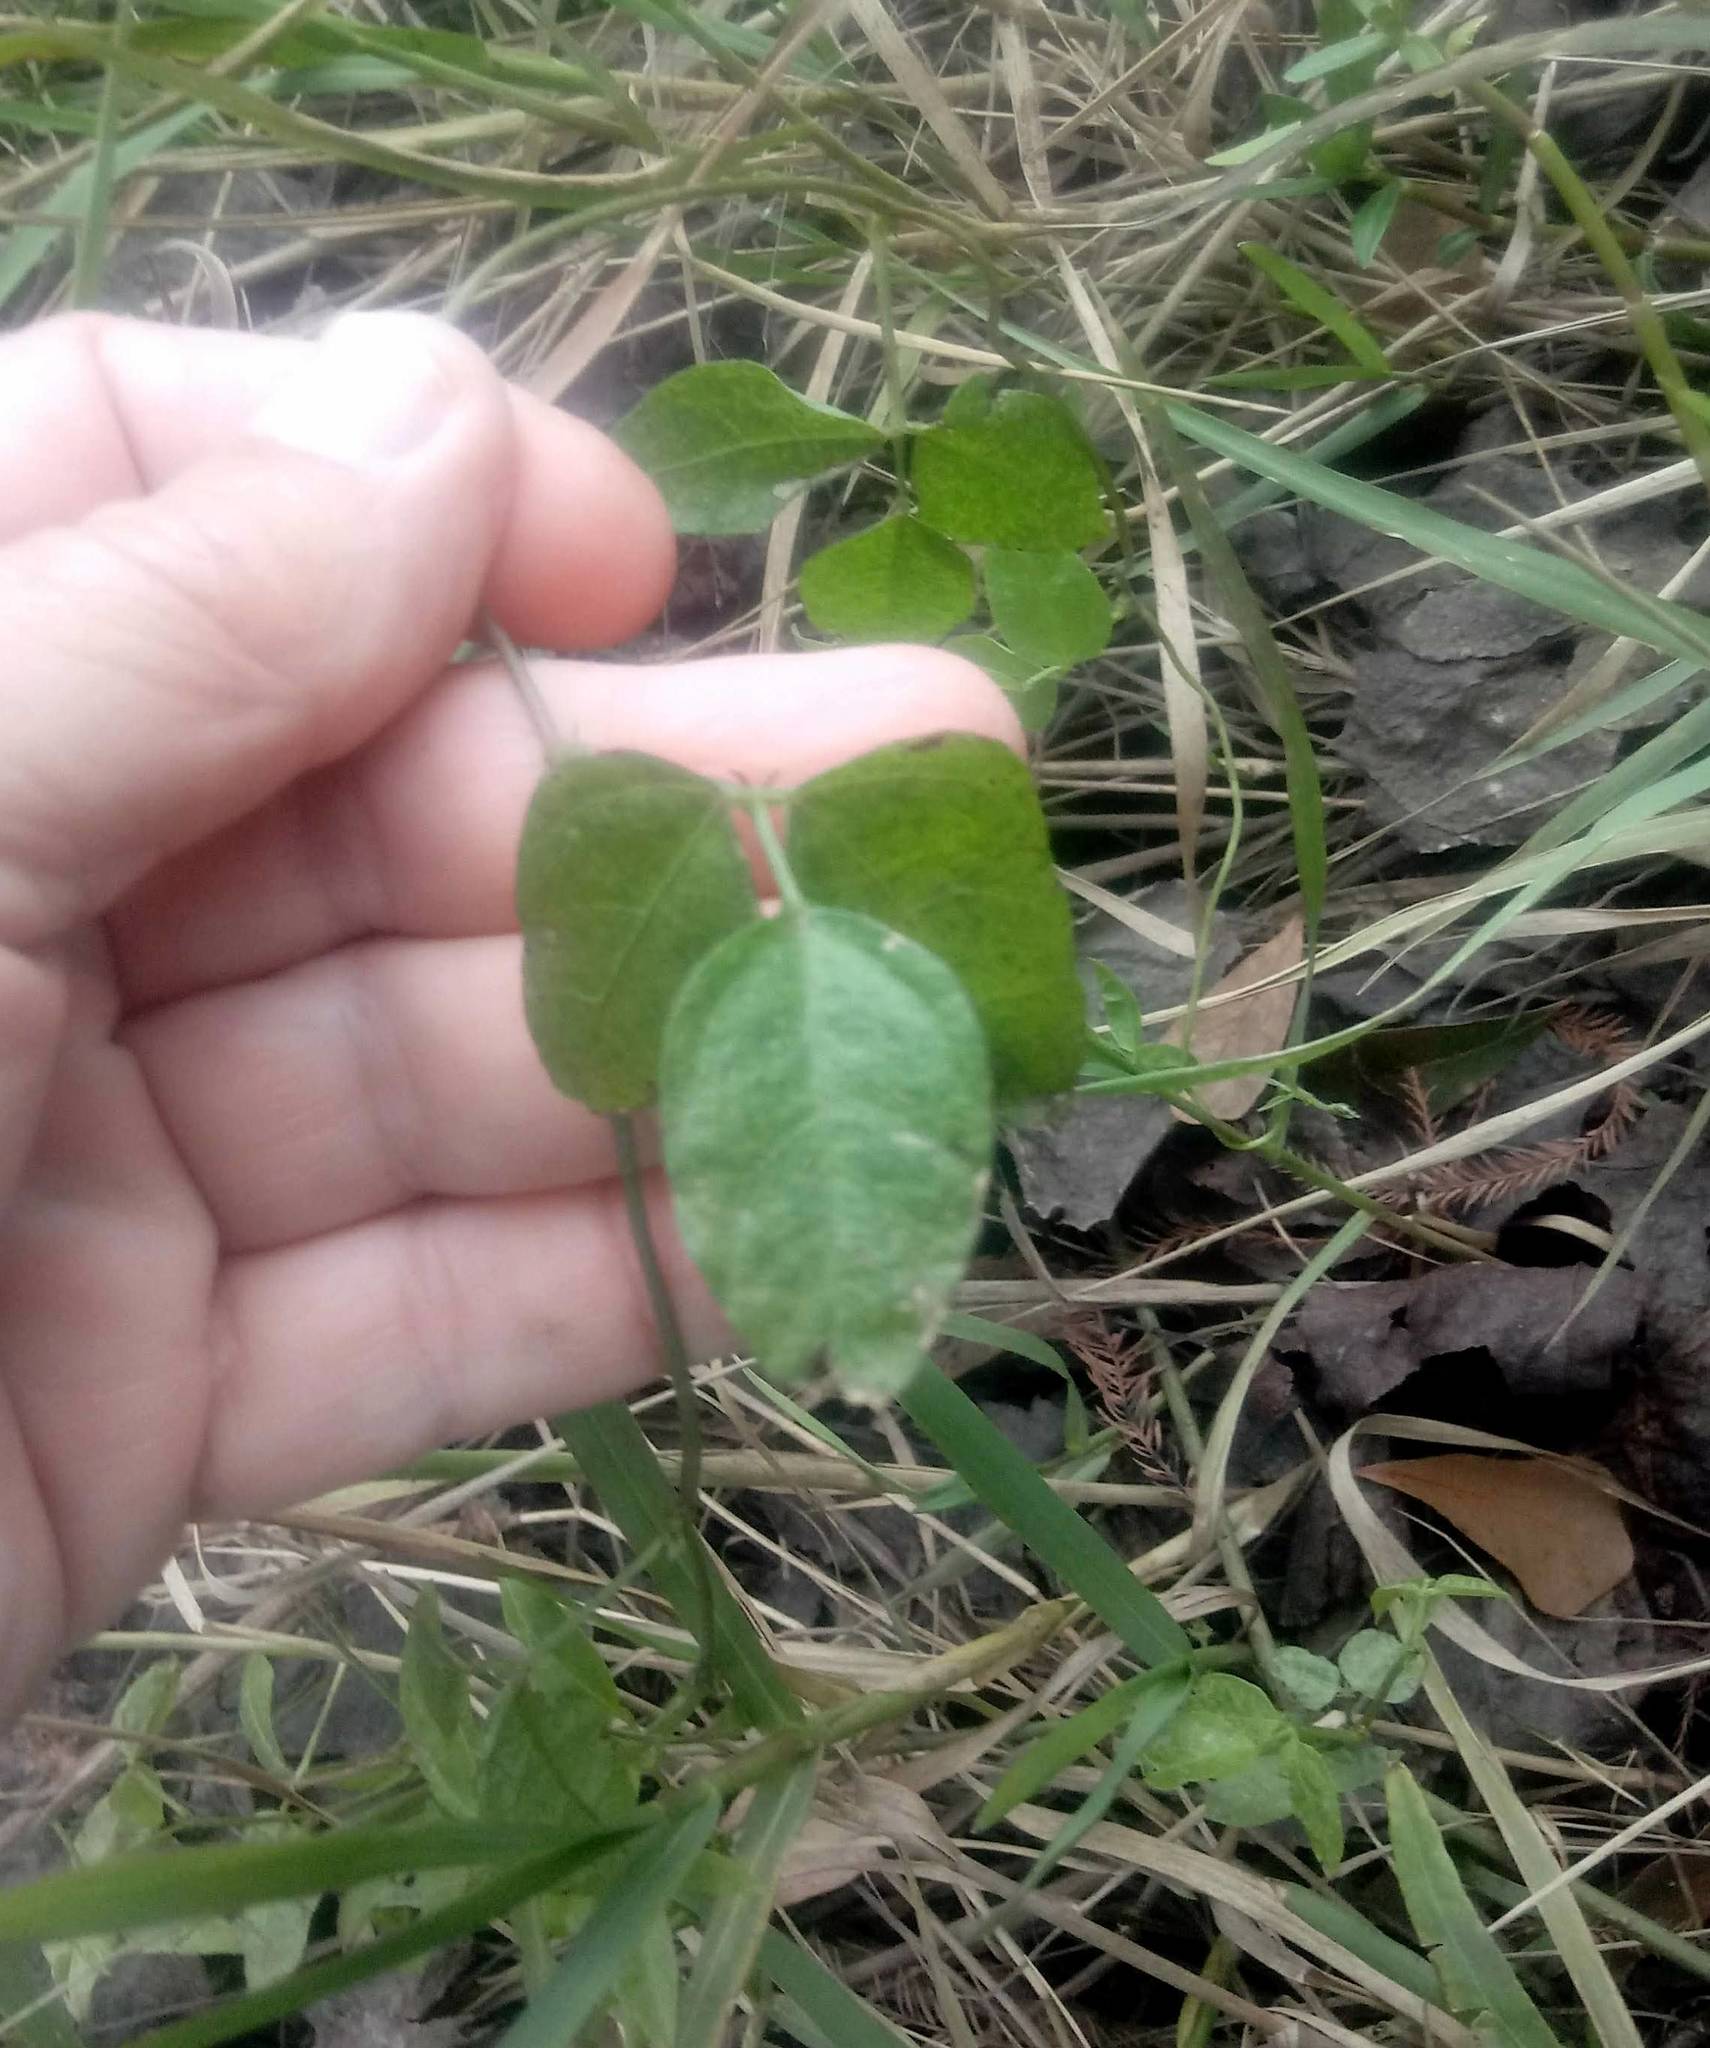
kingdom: Plantae
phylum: Tracheophyta
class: Magnoliopsida
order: Fabales
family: Fabaceae
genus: Vigna
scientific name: Vigna luteola
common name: Hairypod cowpea
